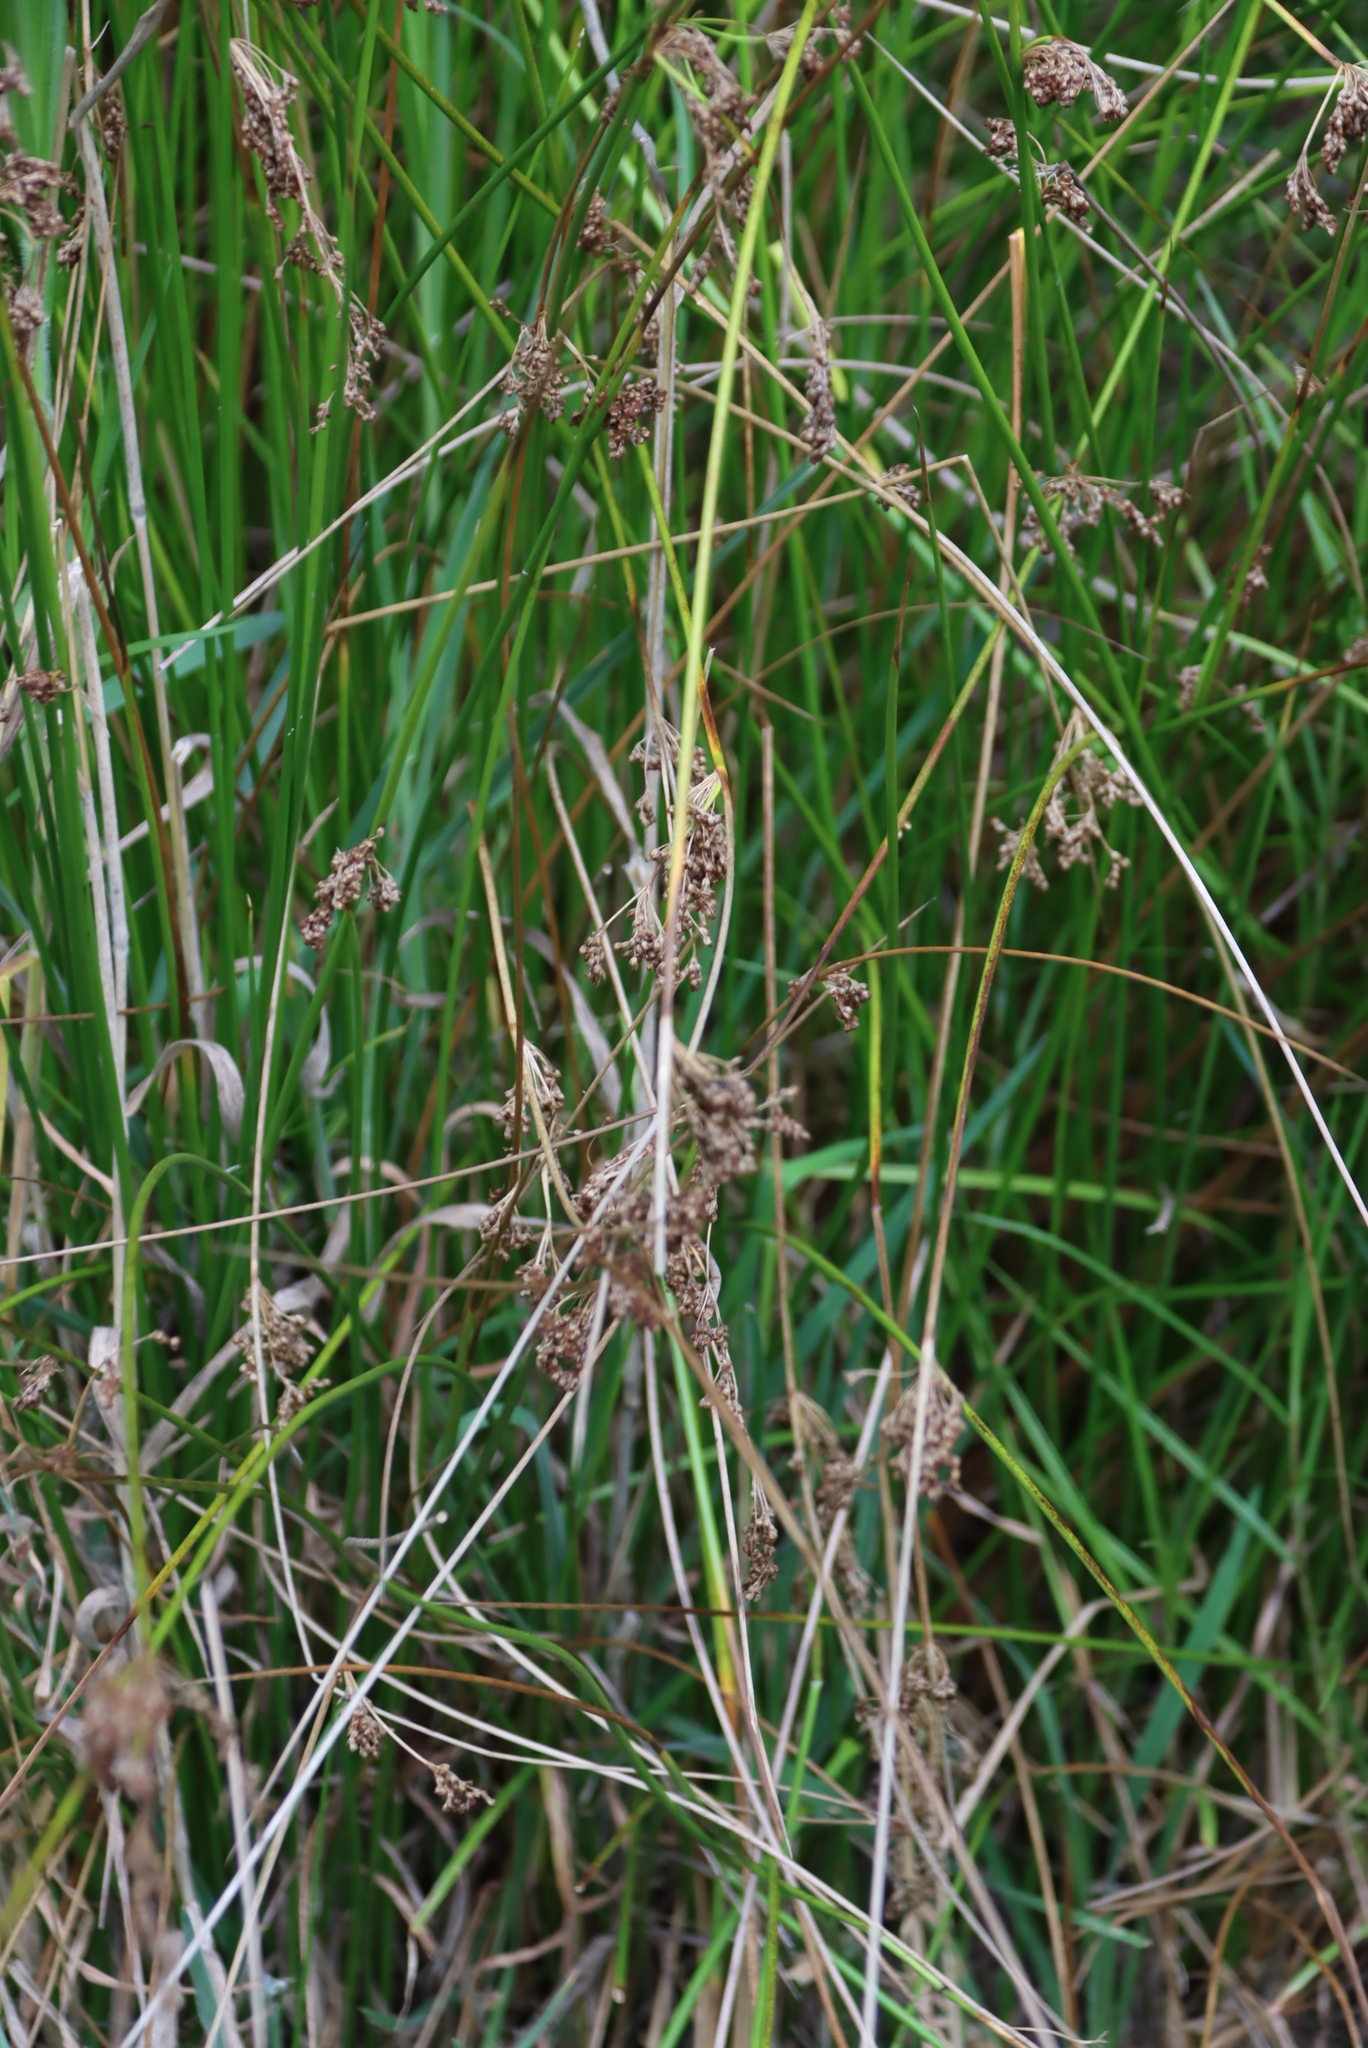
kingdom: Plantae
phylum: Tracheophyta
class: Liliopsida
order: Poales
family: Juncaceae
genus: Juncus
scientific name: Juncus effusus
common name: Soft rush
